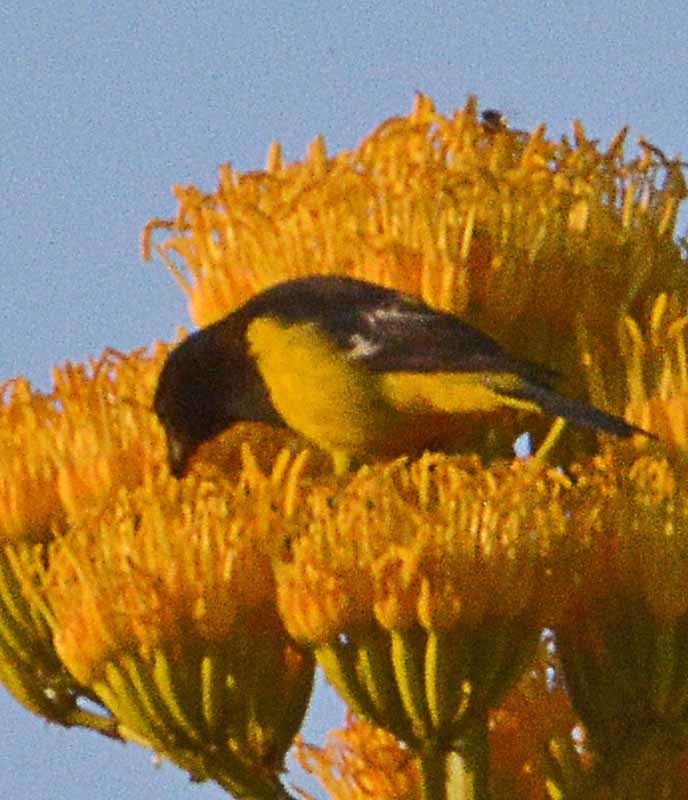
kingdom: Animalia
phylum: Chordata
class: Aves
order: Passeriformes
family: Icteridae
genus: Icterus
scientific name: Icterus parisorum
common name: Scott's oriole
